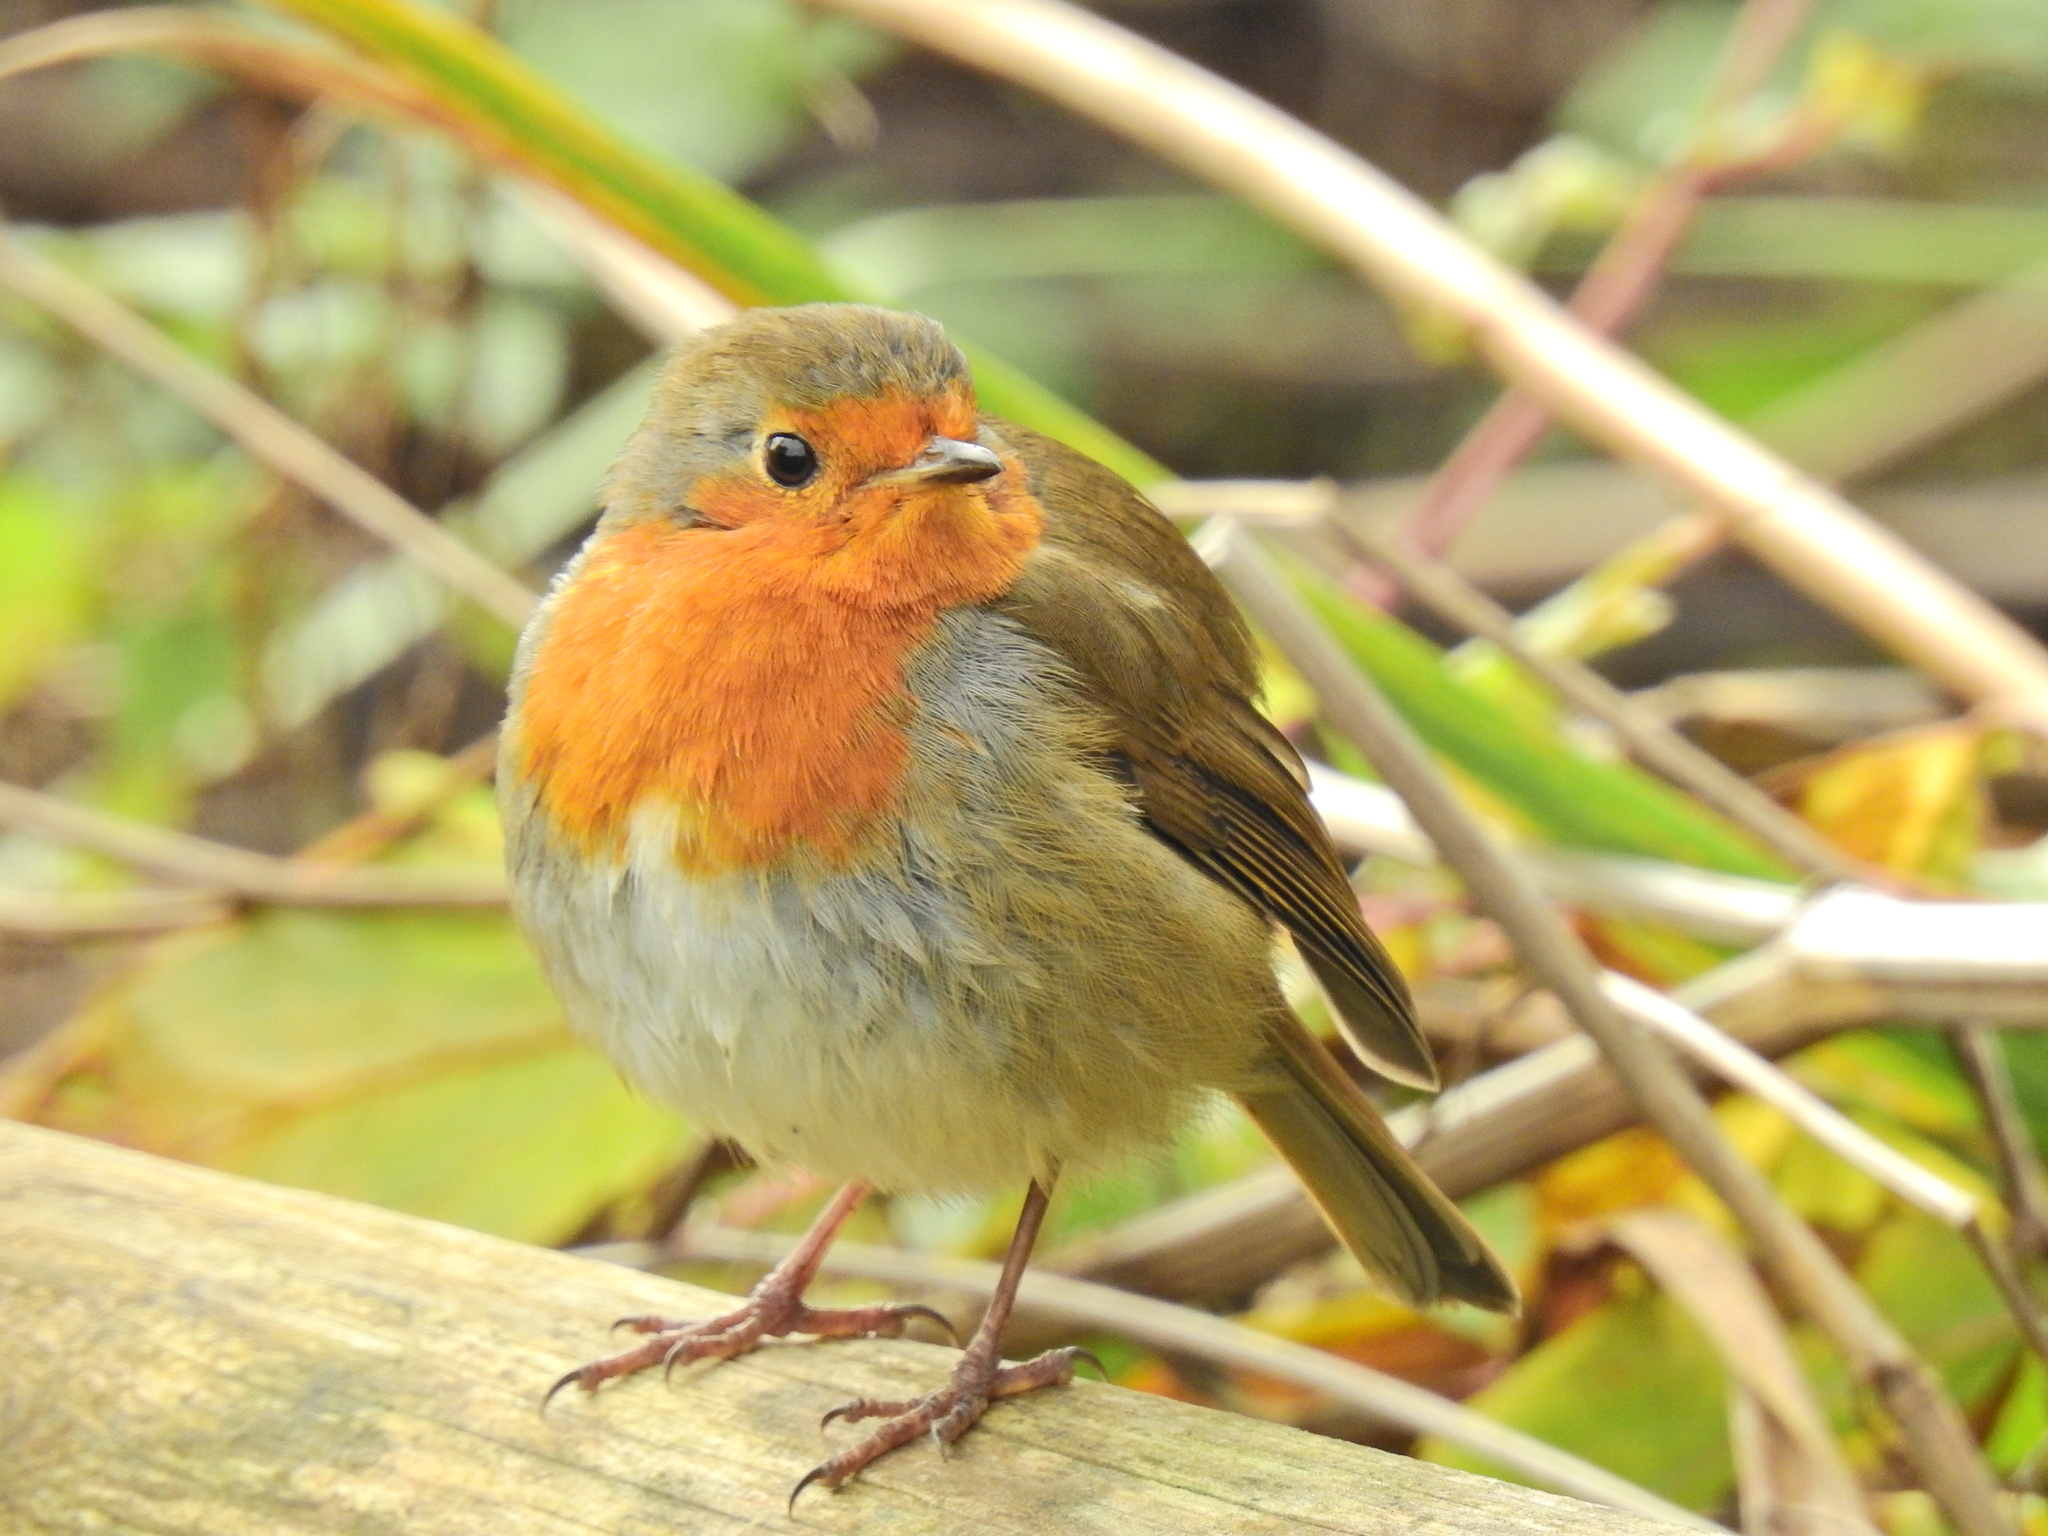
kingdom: Animalia
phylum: Chordata
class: Aves
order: Passeriformes
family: Muscicapidae
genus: Erithacus
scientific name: Erithacus rubecula
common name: European robin
